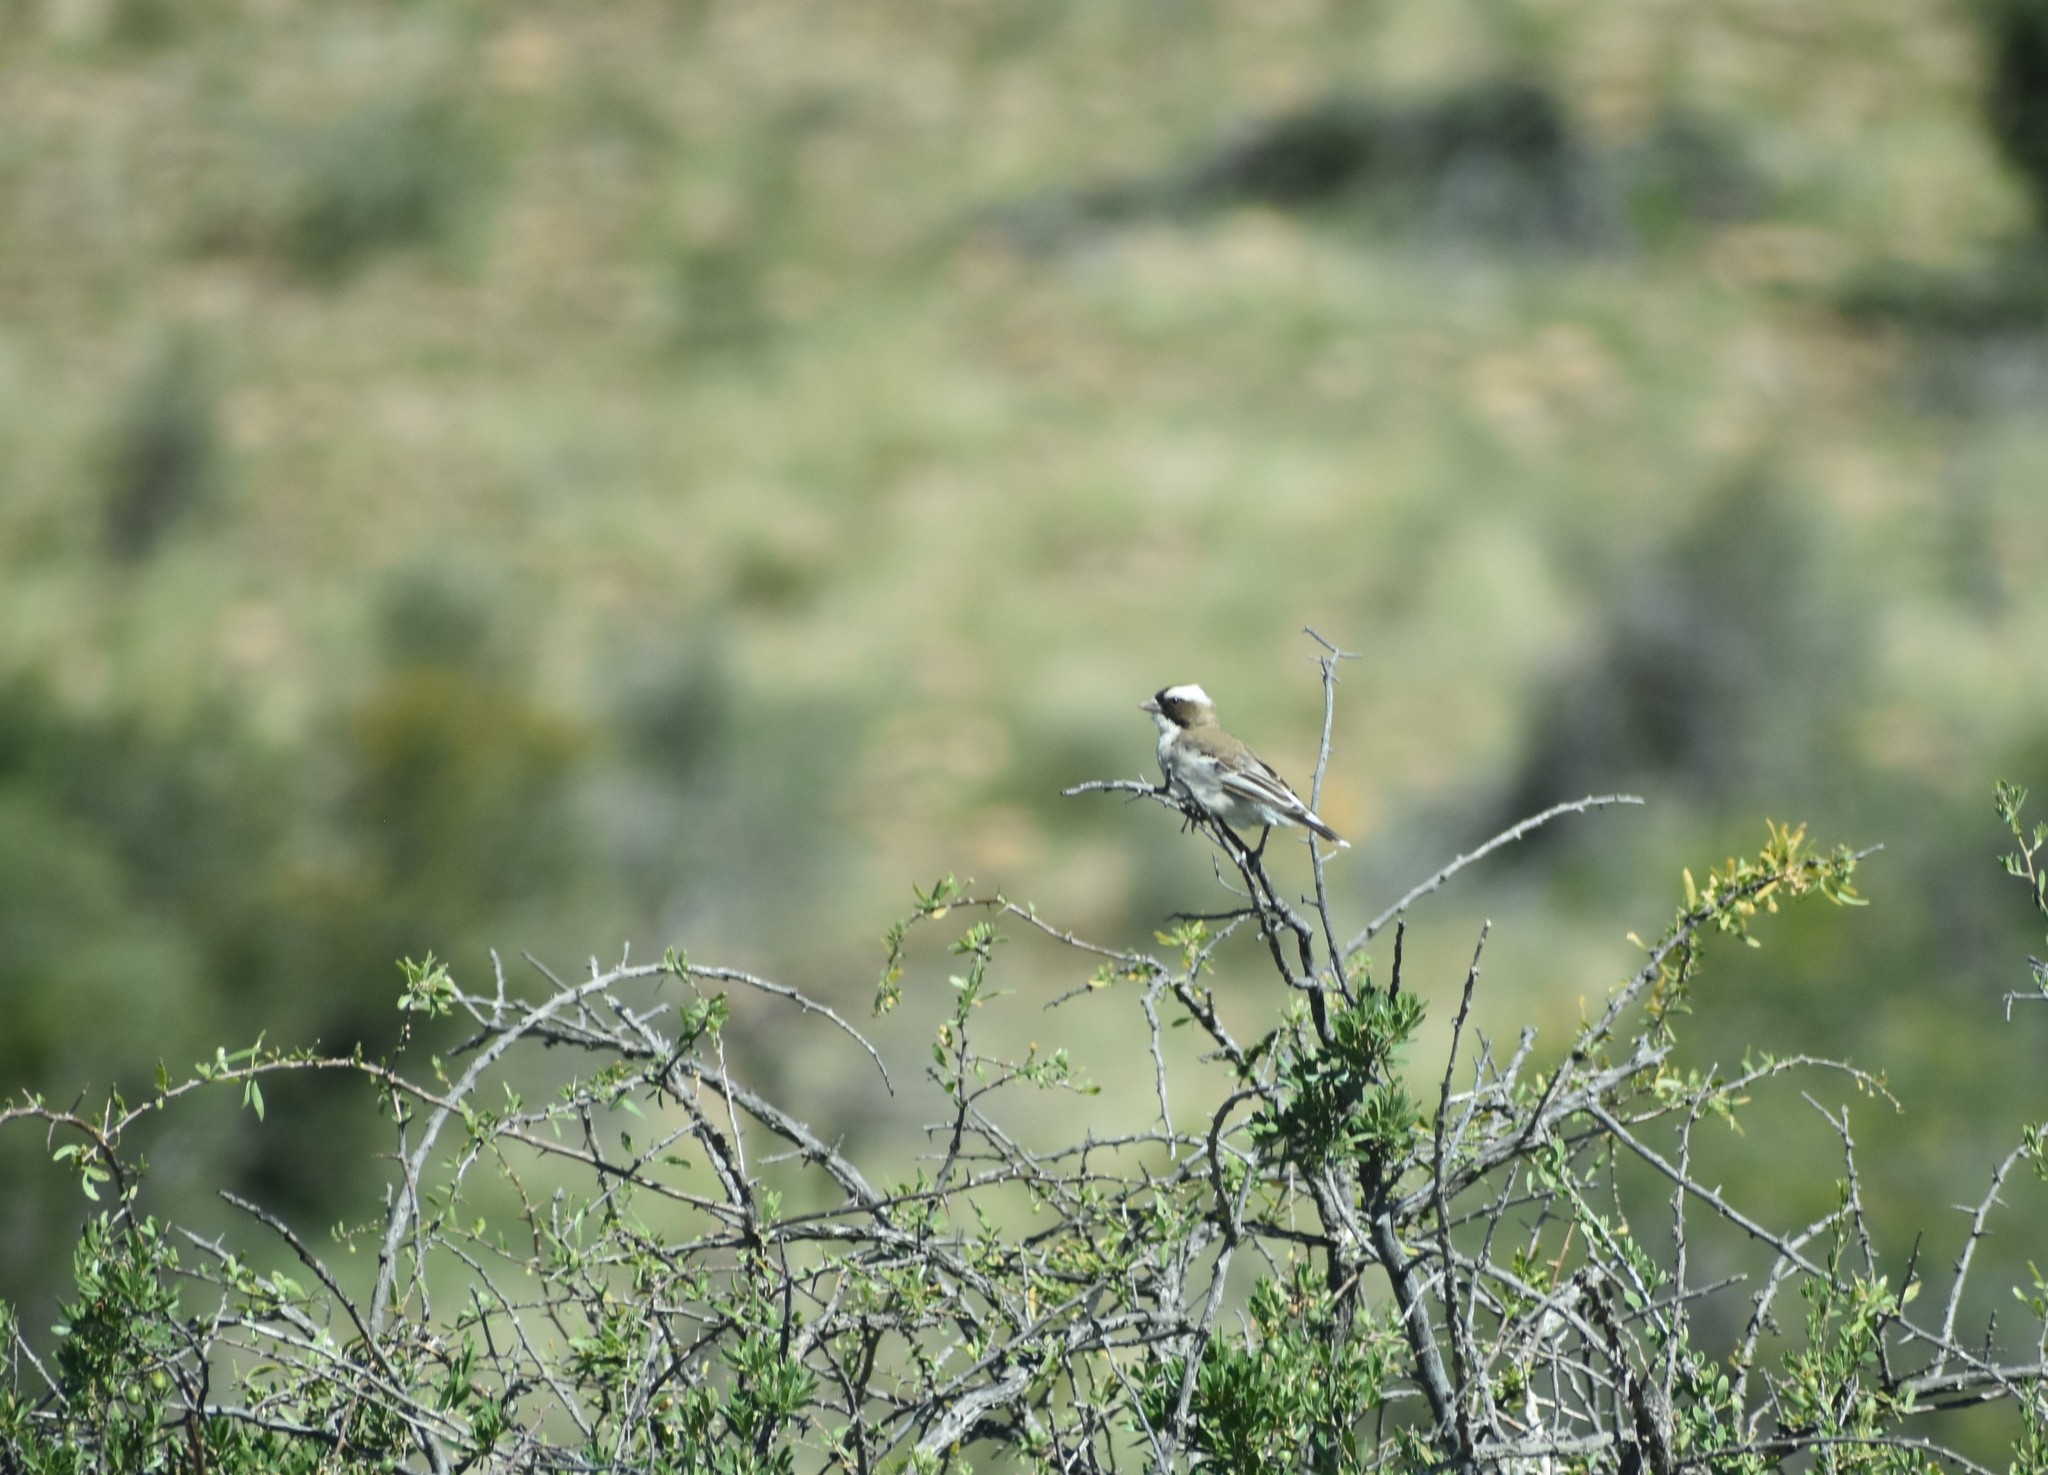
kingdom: Animalia
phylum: Chordata
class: Aves
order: Passeriformes
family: Passeridae
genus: Plocepasser
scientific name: Plocepasser mahali
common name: White-browed sparrow-weaver
